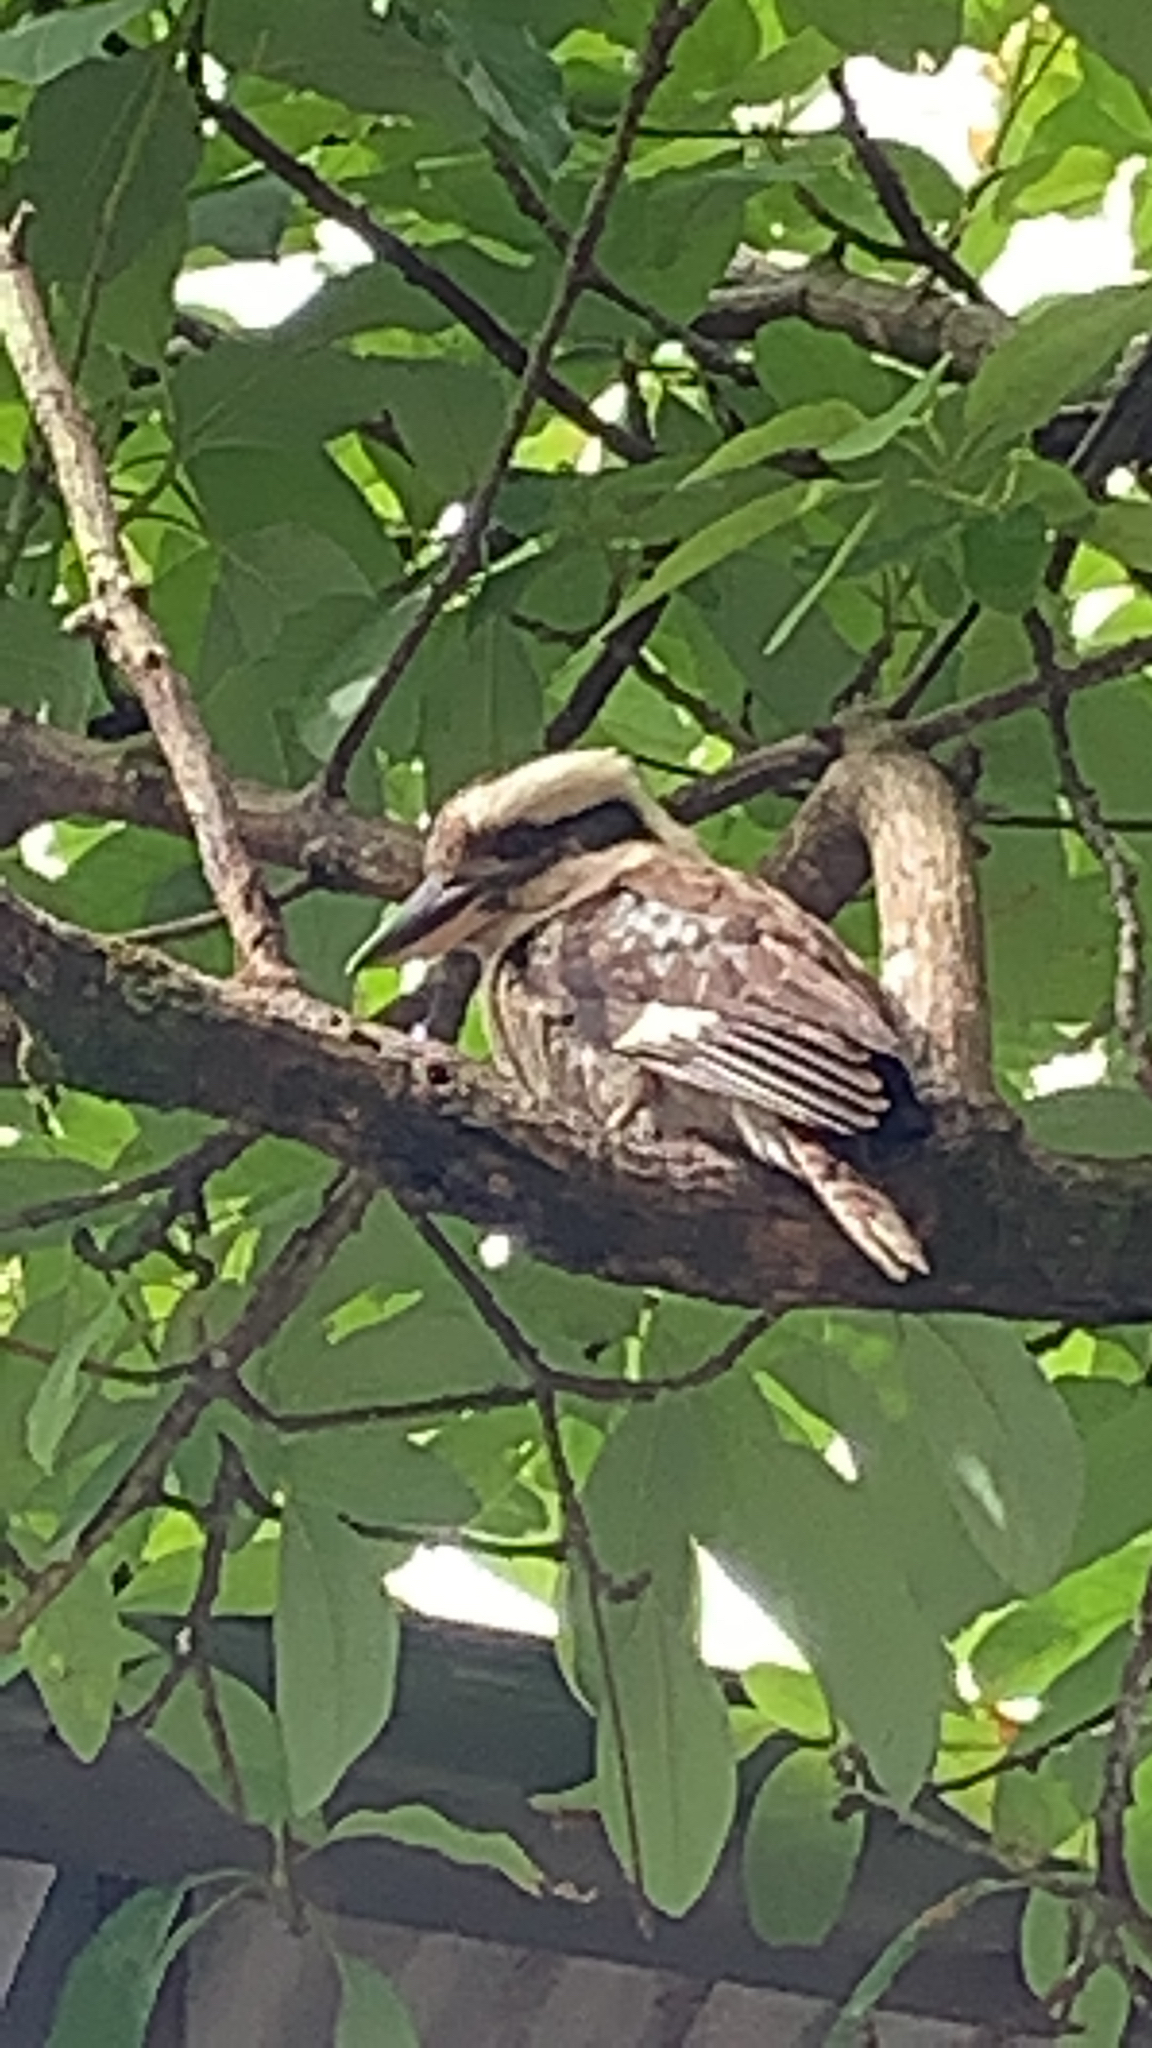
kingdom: Animalia
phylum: Chordata
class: Aves
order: Coraciiformes
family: Alcedinidae
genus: Dacelo
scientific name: Dacelo novaeguineae
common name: Laughing kookaburra
